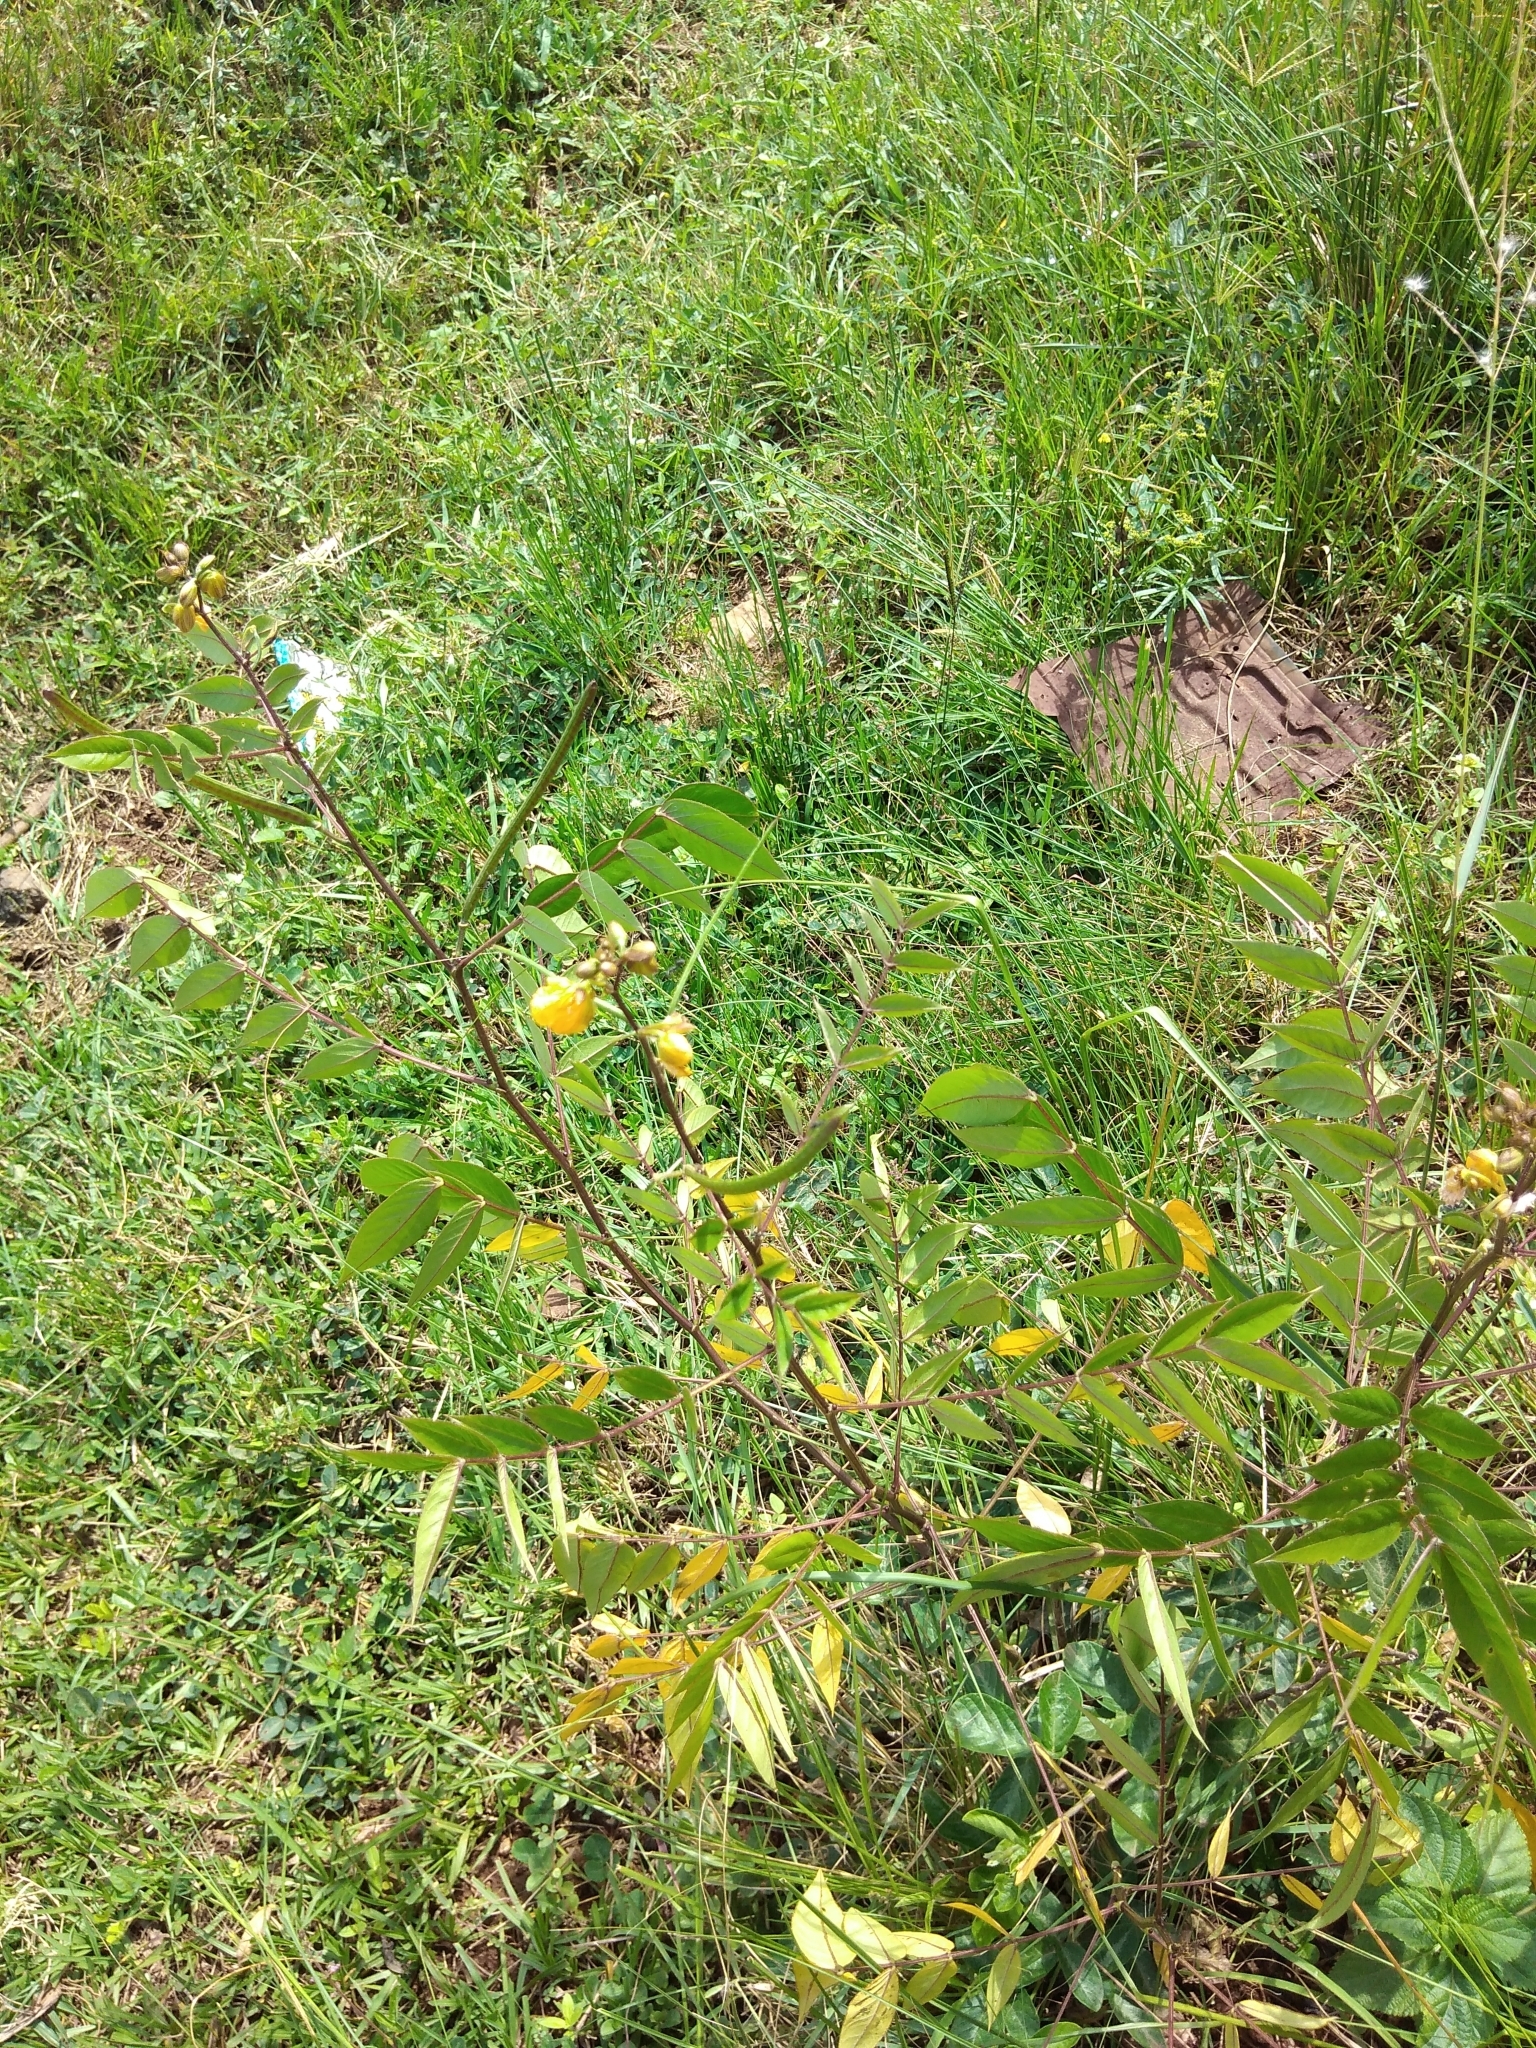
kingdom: Plantae
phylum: Tracheophyta
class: Magnoliopsida
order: Fabales
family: Fabaceae
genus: Senna
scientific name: Senna occidentalis
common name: Septicweed
